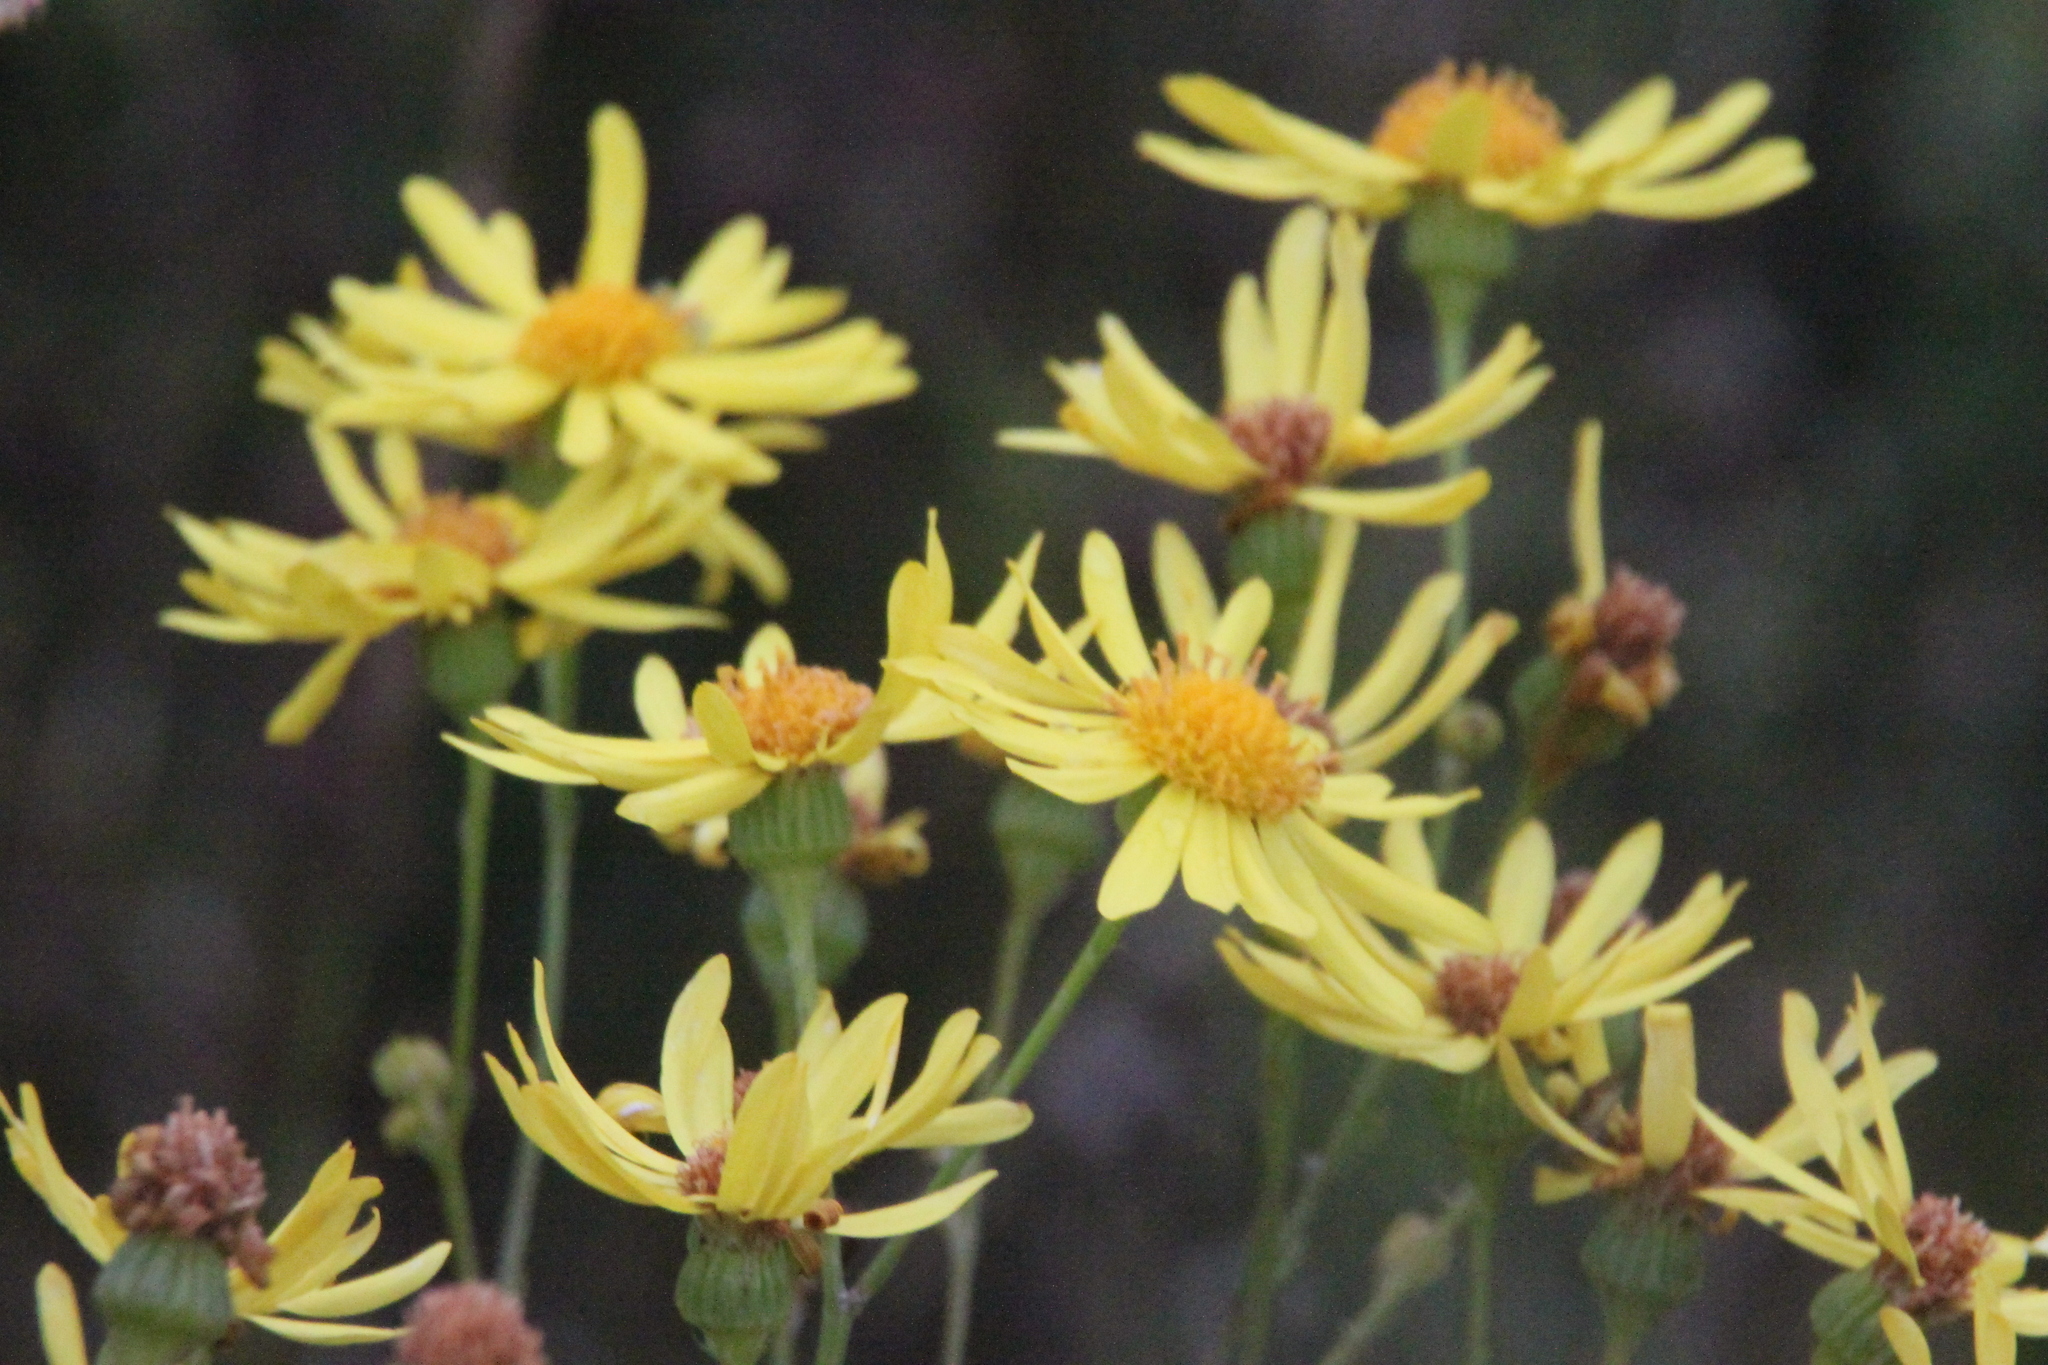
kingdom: Plantae
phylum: Tracheophyta
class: Magnoliopsida
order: Asterales
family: Asteraceae
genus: Jacobaea
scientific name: Jacobaea vulgaris
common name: Stinking willie
